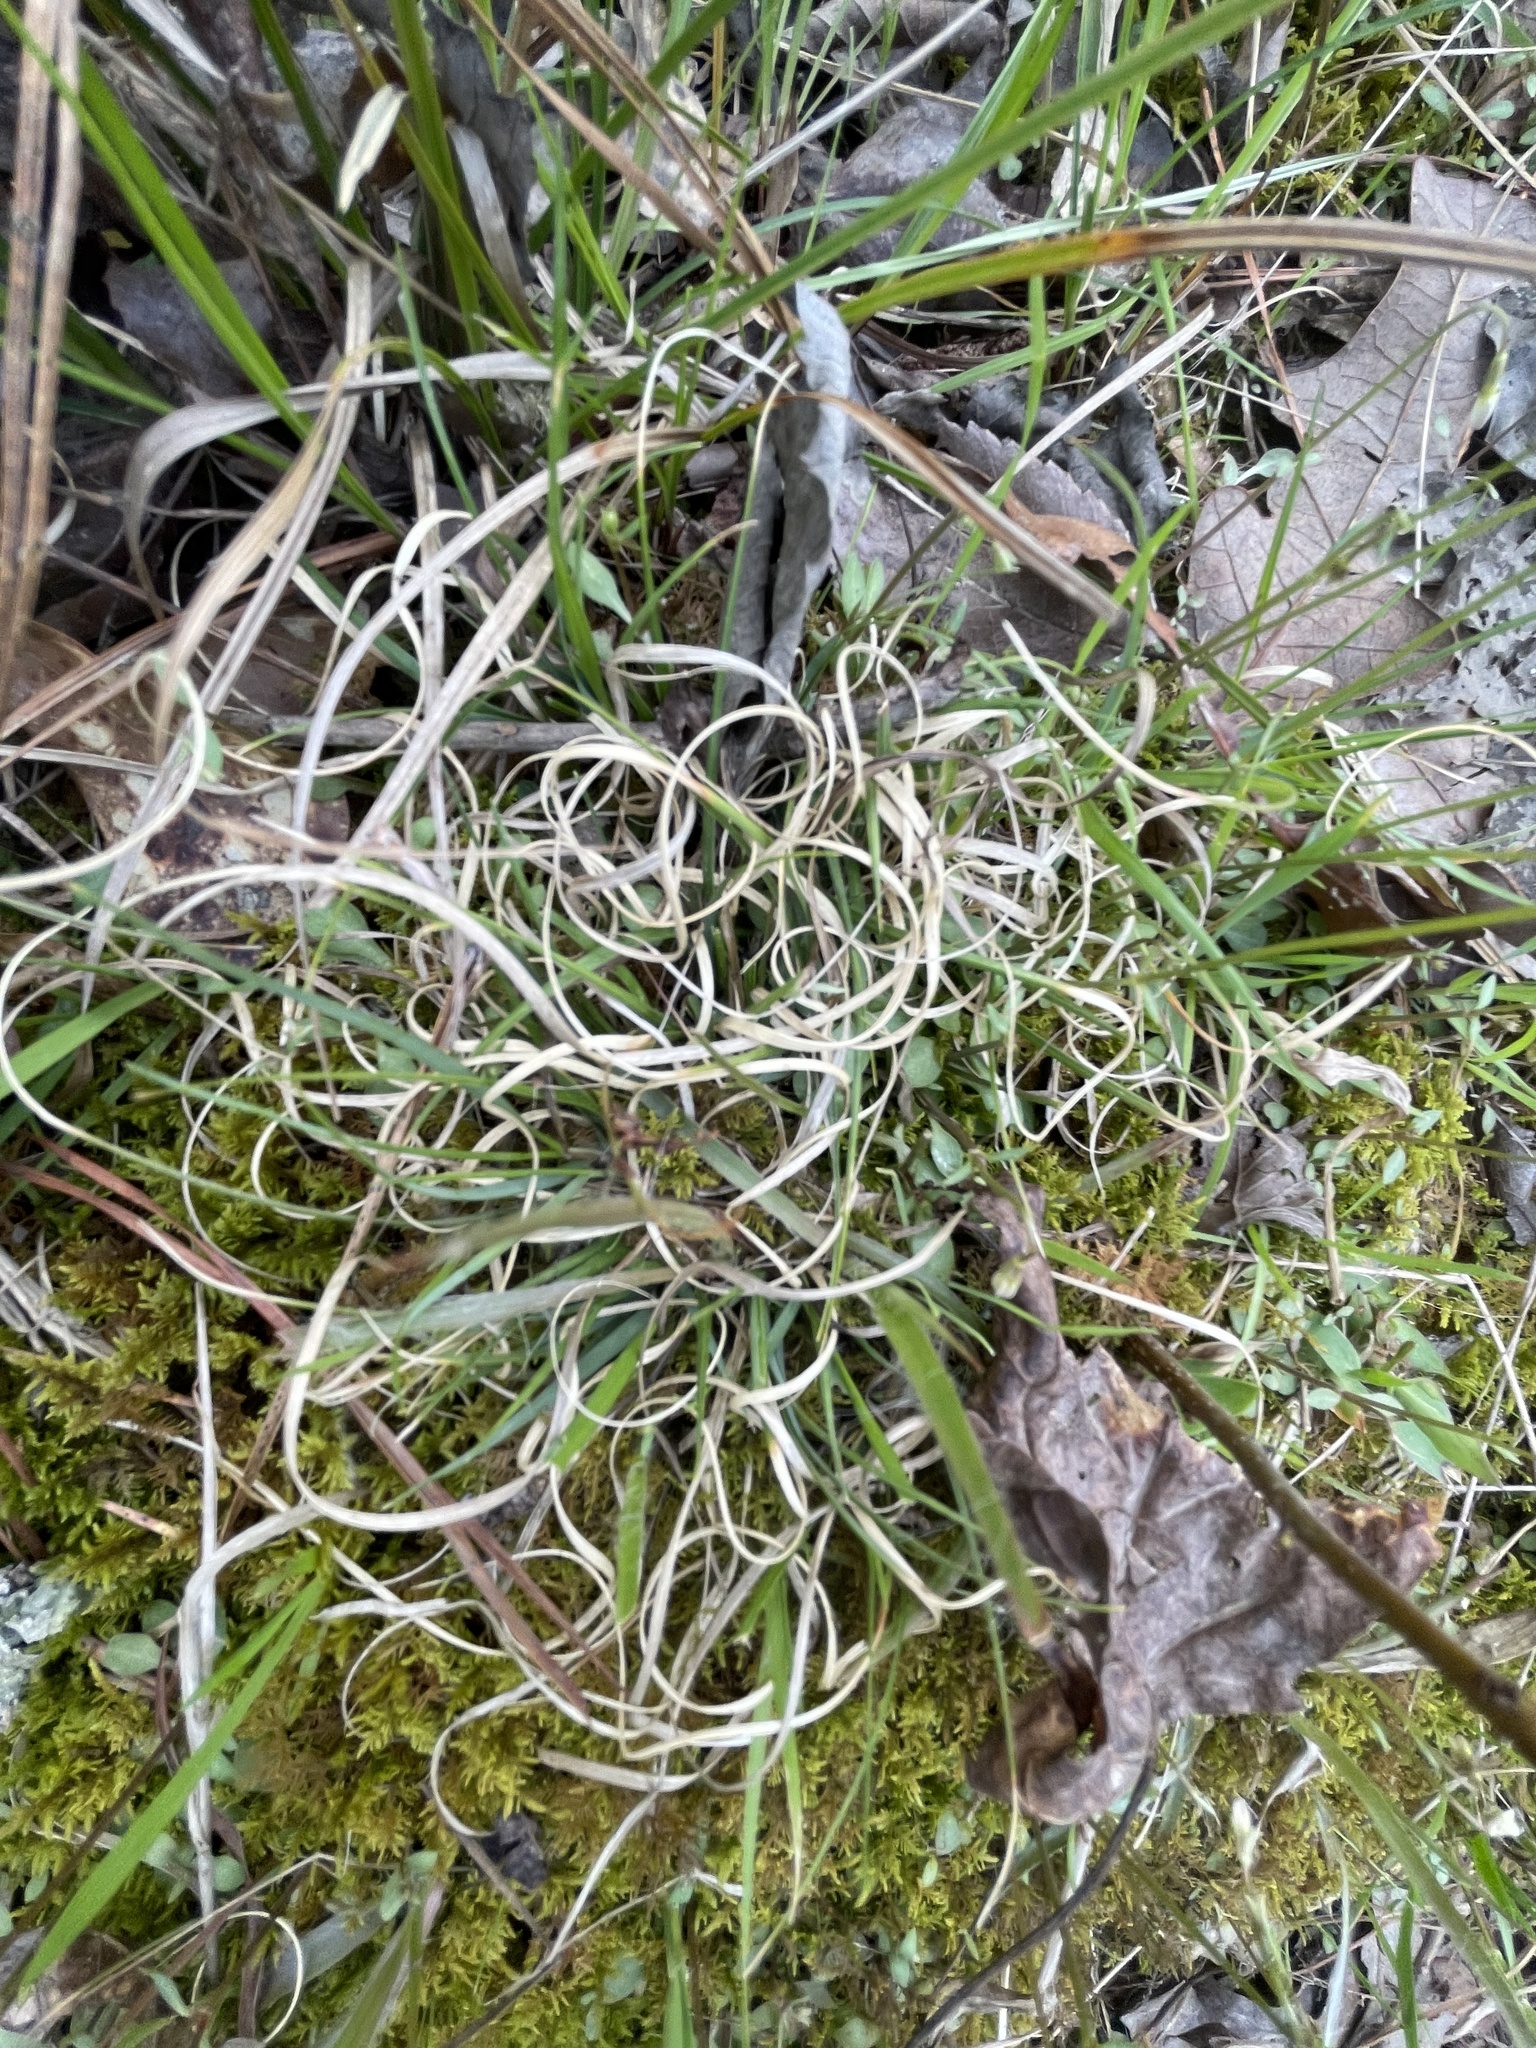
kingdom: Plantae
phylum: Tracheophyta
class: Liliopsida
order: Poales
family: Poaceae
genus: Danthonia
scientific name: Danthonia spicata
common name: Common wild oatgrass
